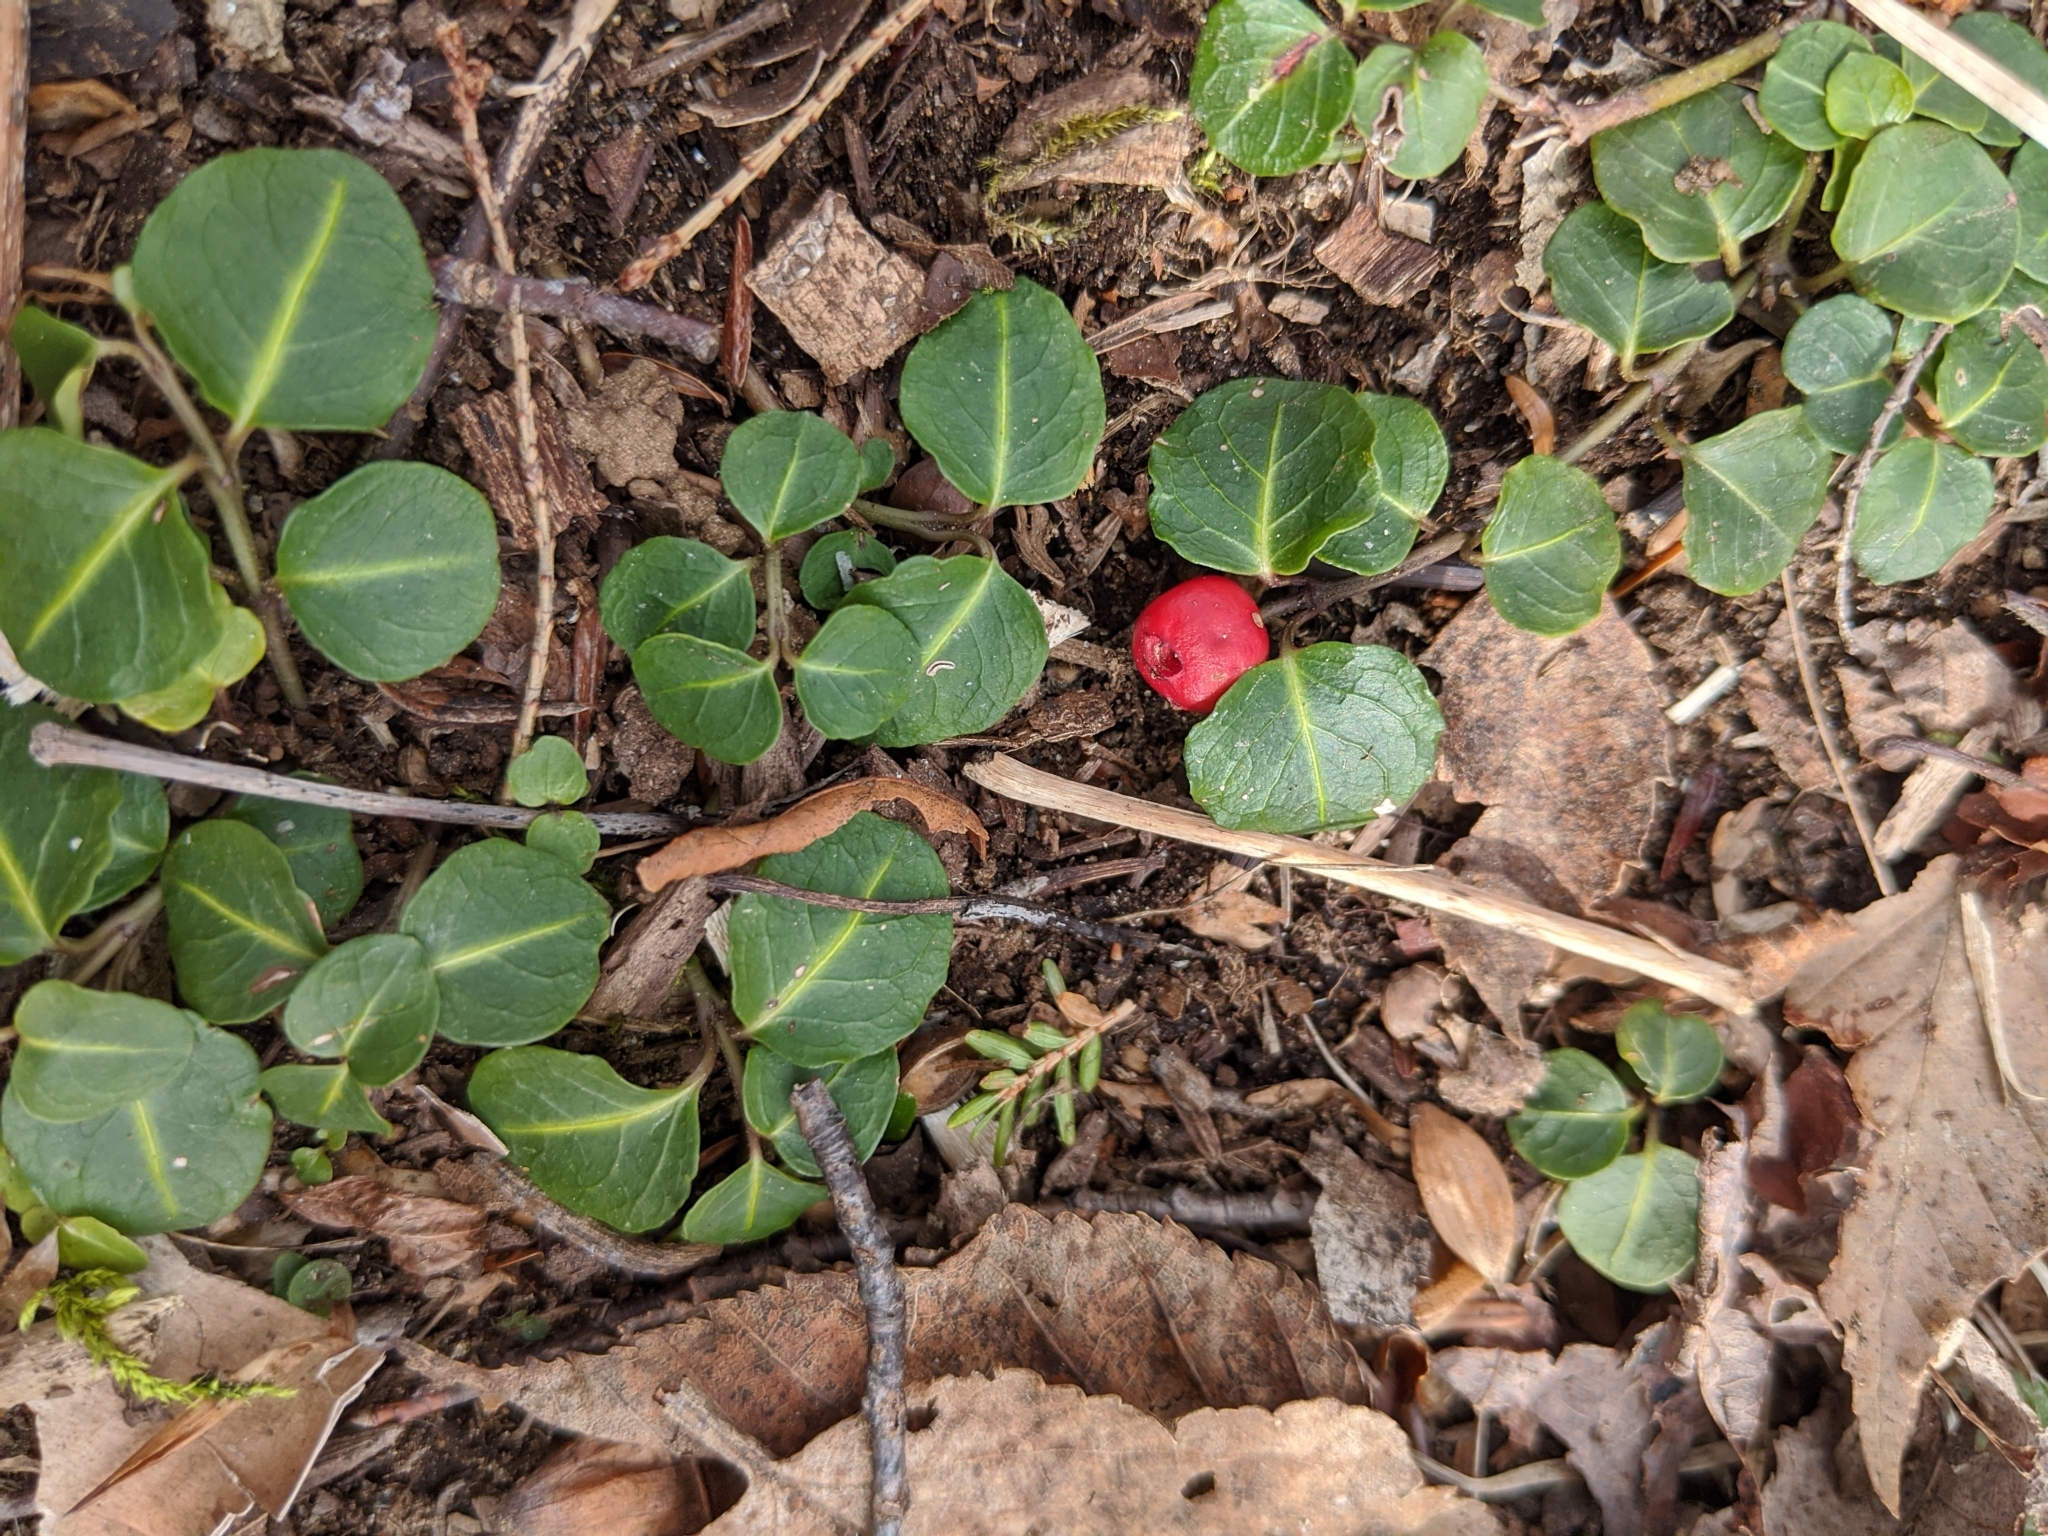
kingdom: Plantae
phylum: Tracheophyta
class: Magnoliopsida
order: Gentianales
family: Rubiaceae
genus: Mitchella
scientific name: Mitchella repens
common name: Partridge-berry
